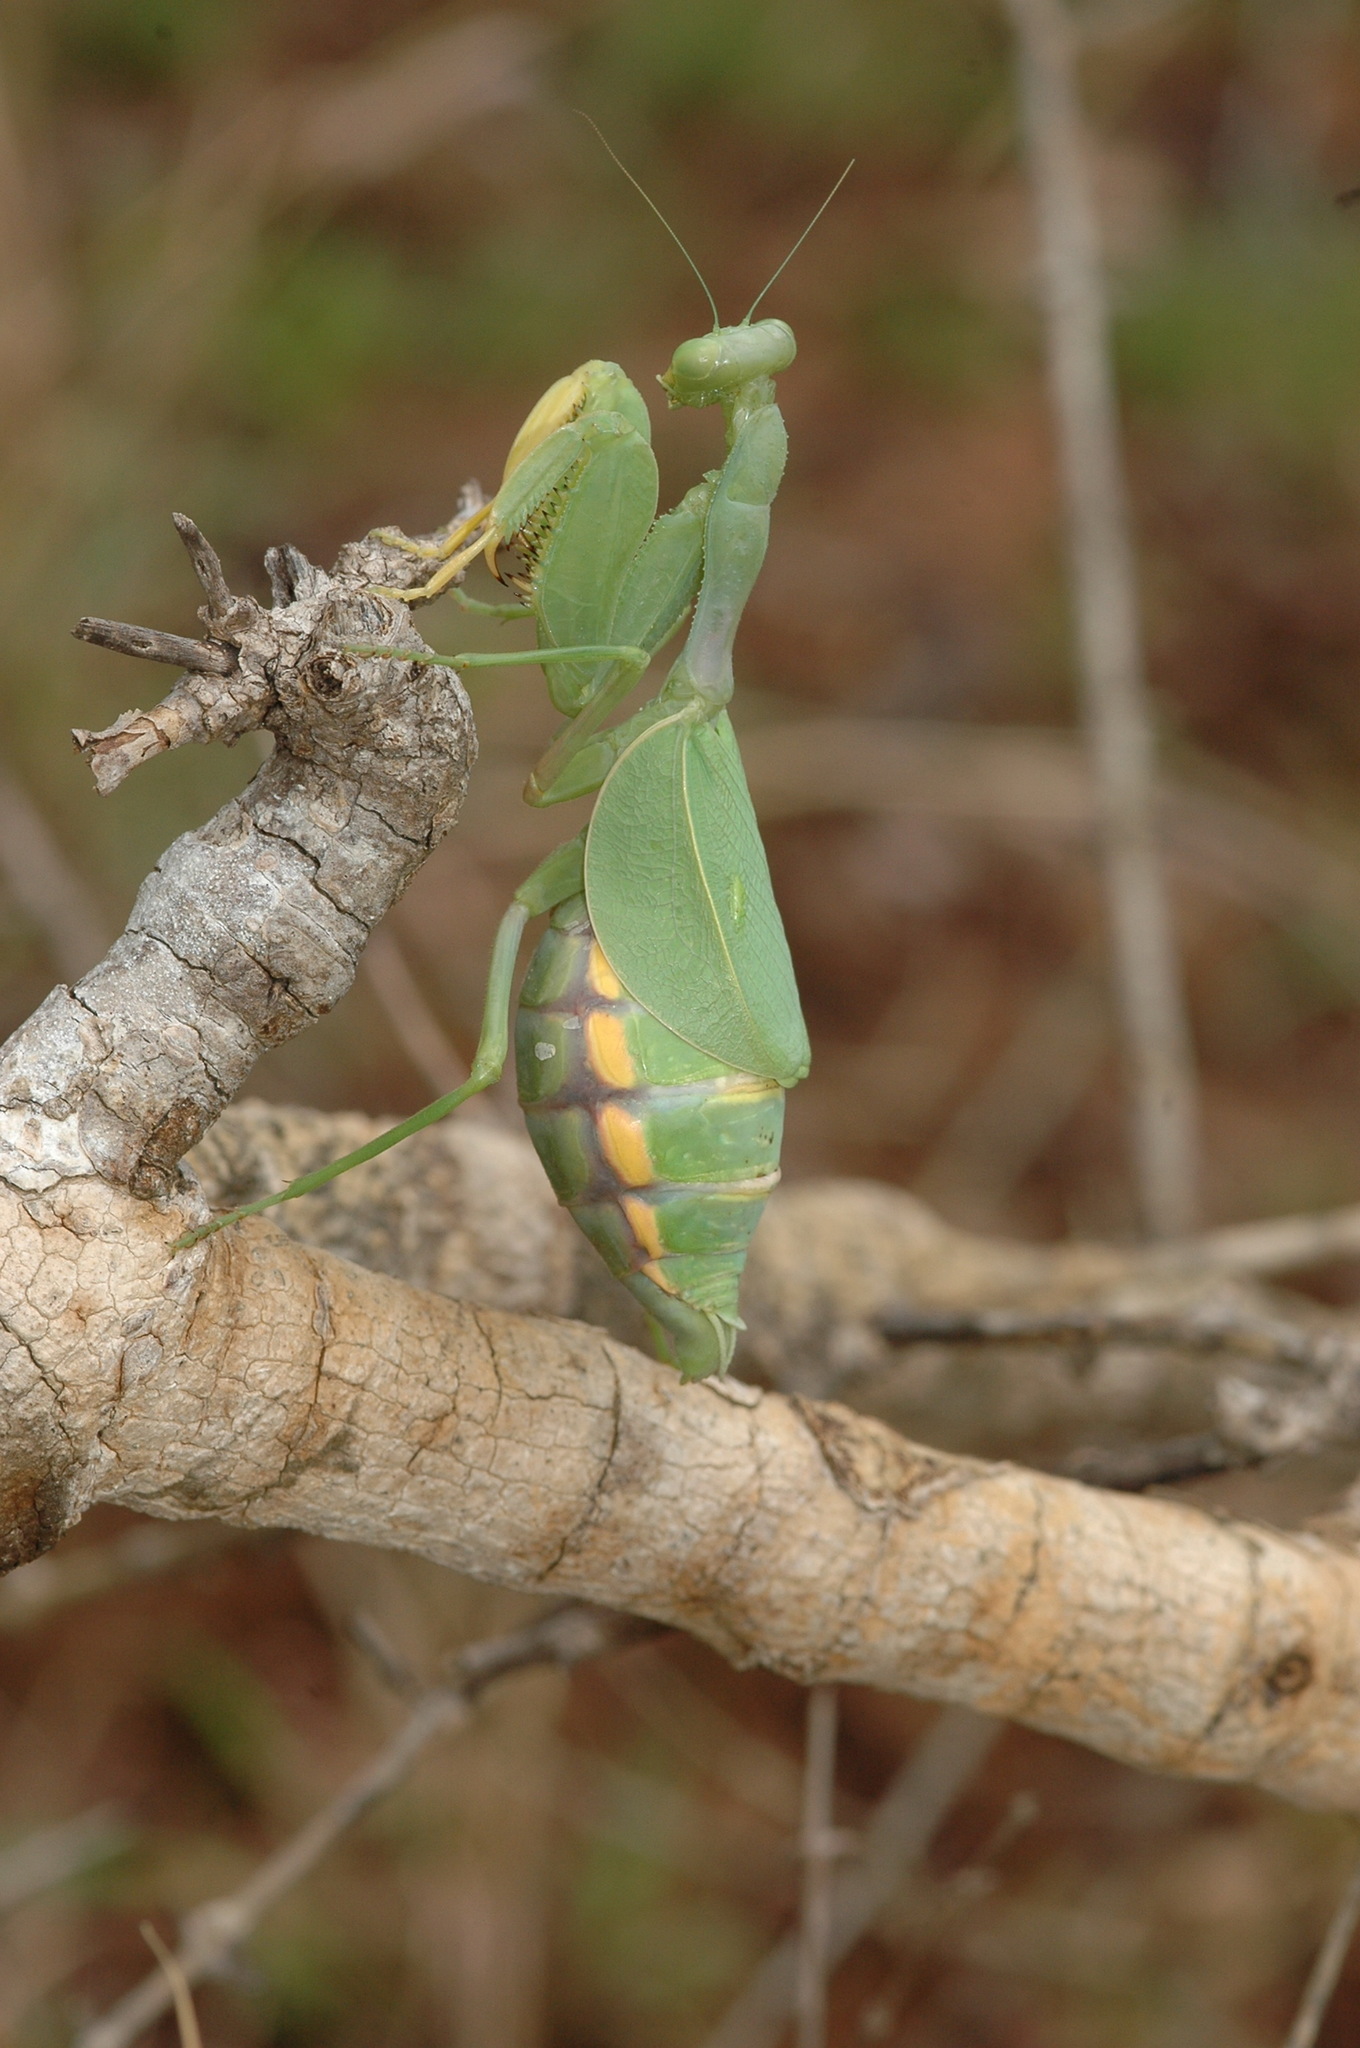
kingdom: Animalia
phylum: Arthropoda
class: Insecta
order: Mantodea
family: Miomantidae
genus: Cilnia
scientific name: Cilnia humeralis
